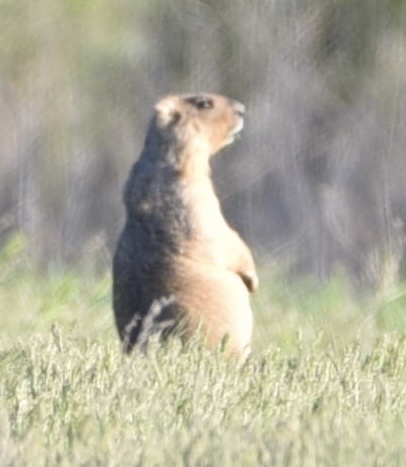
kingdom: Animalia
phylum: Chordata
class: Mammalia
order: Rodentia
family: Sciuridae
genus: Marmota
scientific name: Marmota bobak
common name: Bobak marmot
